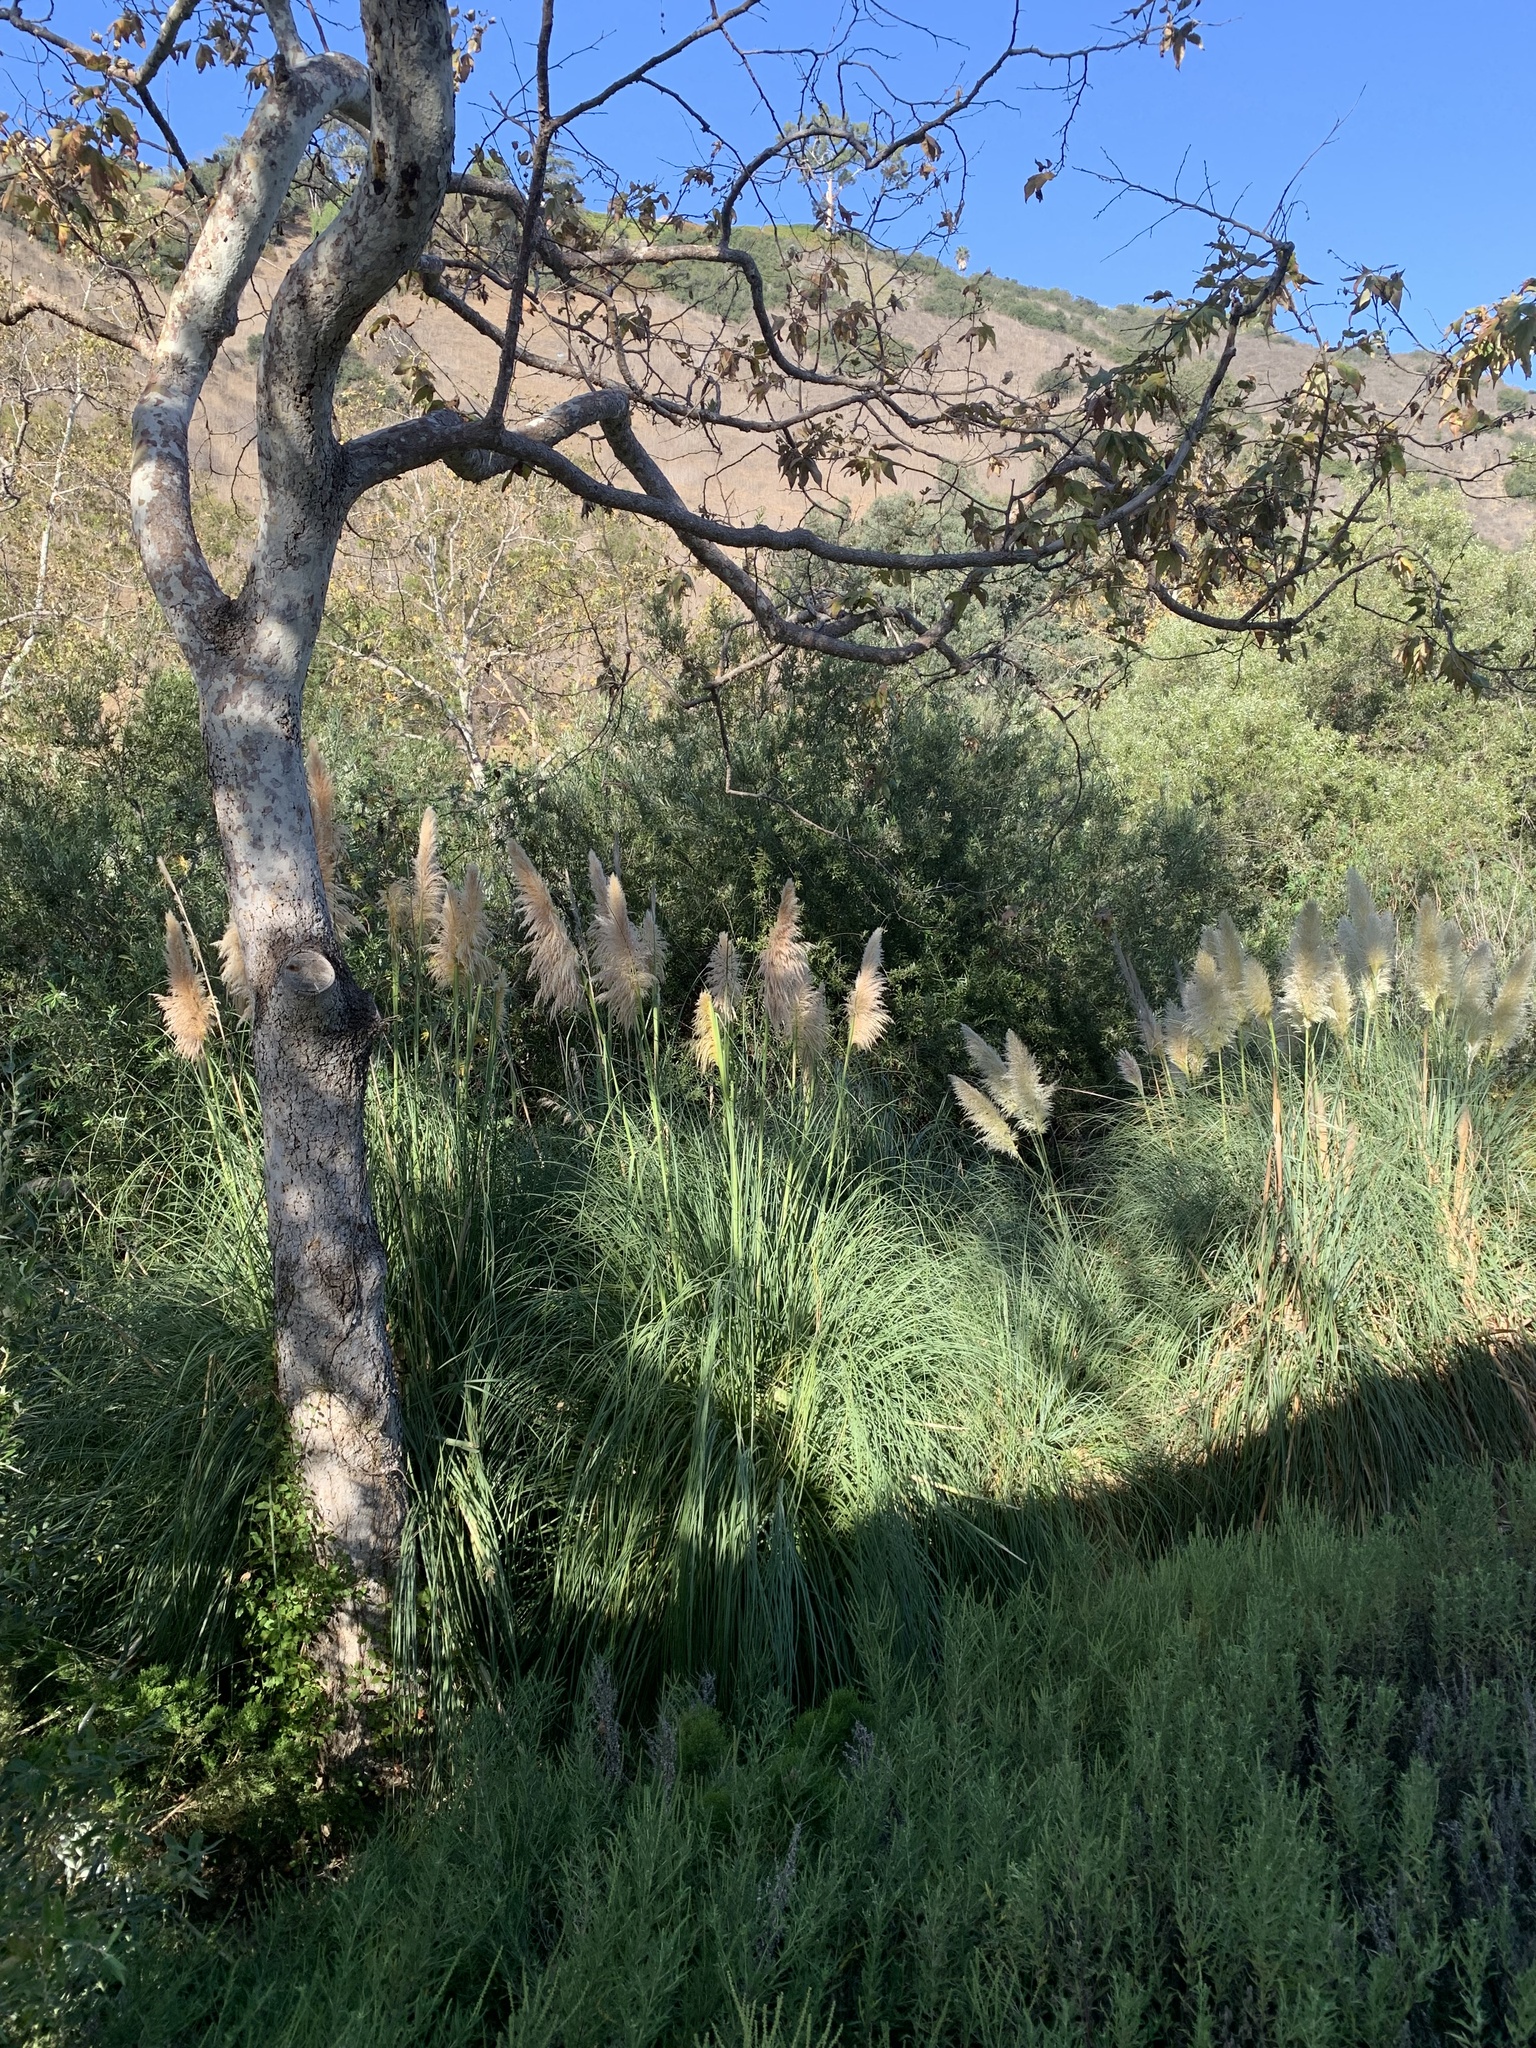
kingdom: Plantae
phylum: Tracheophyta
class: Liliopsida
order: Poales
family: Poaceae
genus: Cortaderia
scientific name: Cortaderia selloana
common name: Uruguayan pampas grass
